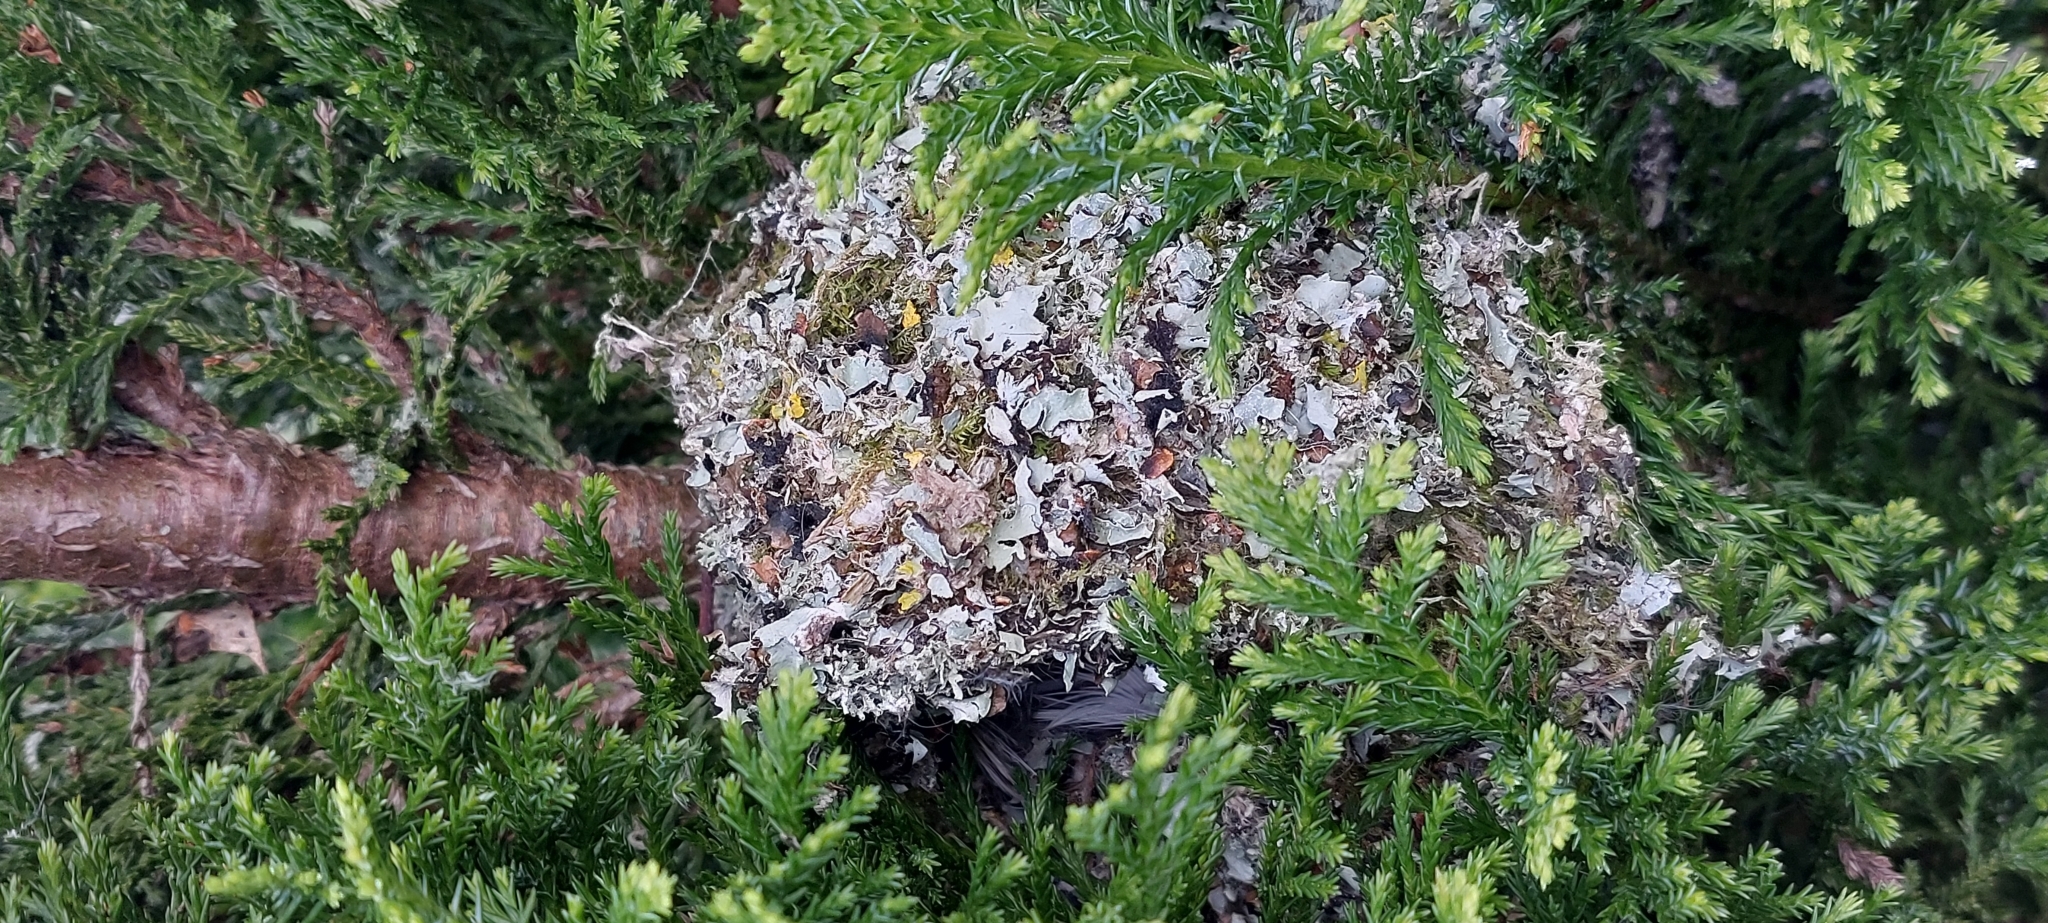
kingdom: Animalia
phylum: Chordata
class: Aves
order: Passeriformes
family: Aegithalidae
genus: Aegithalos
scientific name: Aegithalos caudatus
